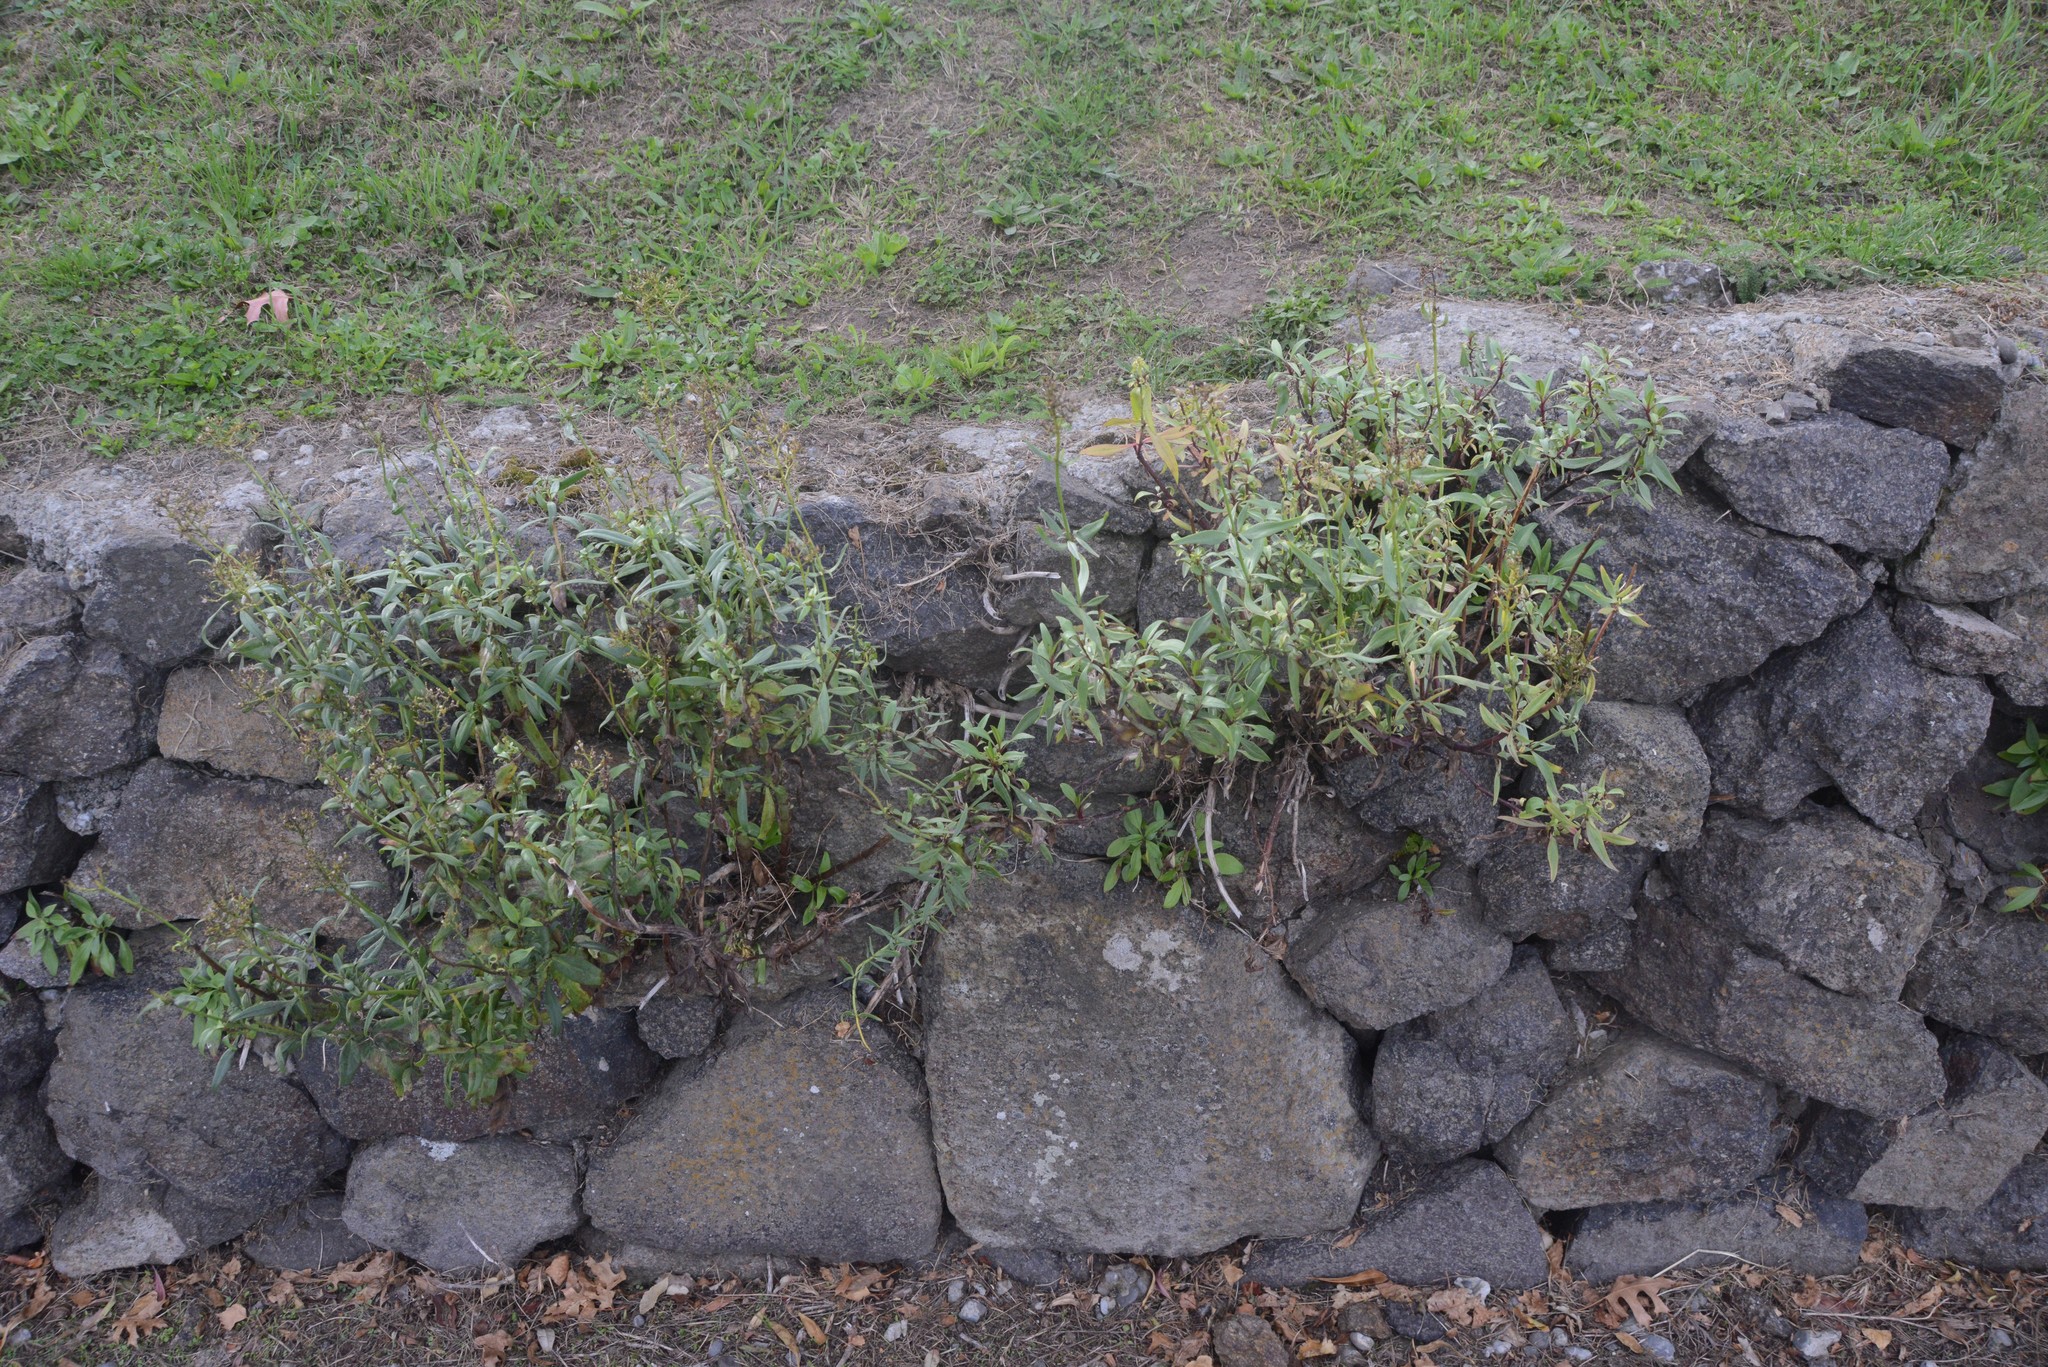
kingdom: Plantae
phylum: Tracheophyta
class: Magnoliopsida
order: Dipsacales
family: Caprifoliaceae
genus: Centranthus
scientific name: Centranthus ruber
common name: Red valerian
